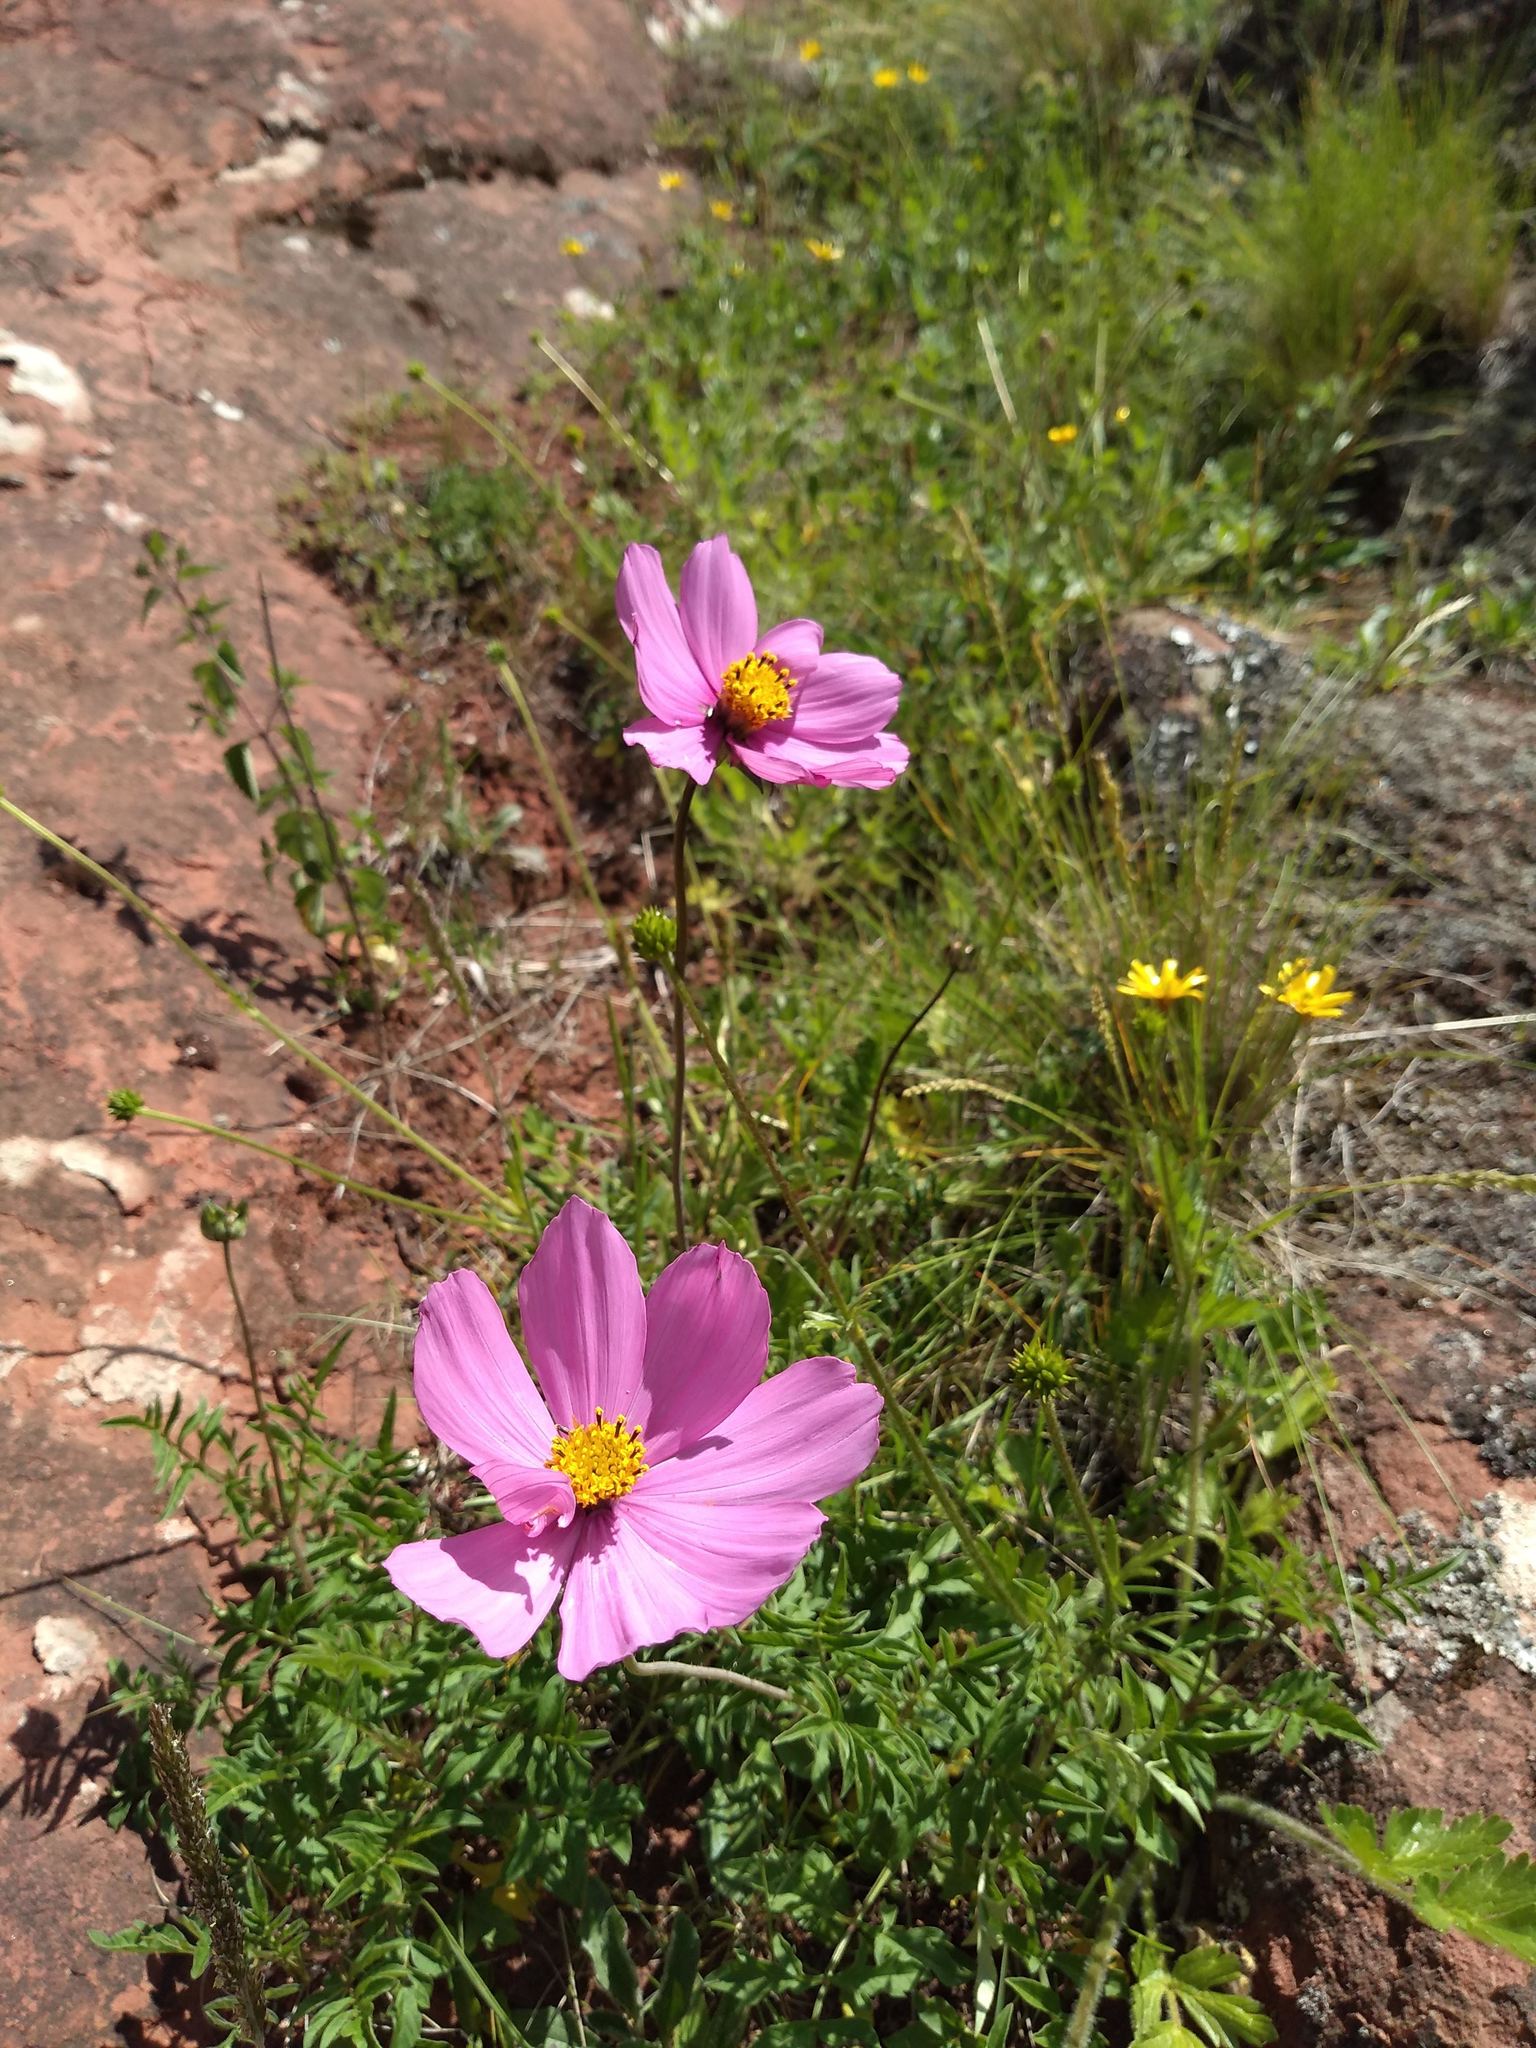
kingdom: Plantae
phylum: Tracheophyta
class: Magnoliopsida
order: Asterales
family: Asteraceae
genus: Cosmos
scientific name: Cosmos peucedanifolius
